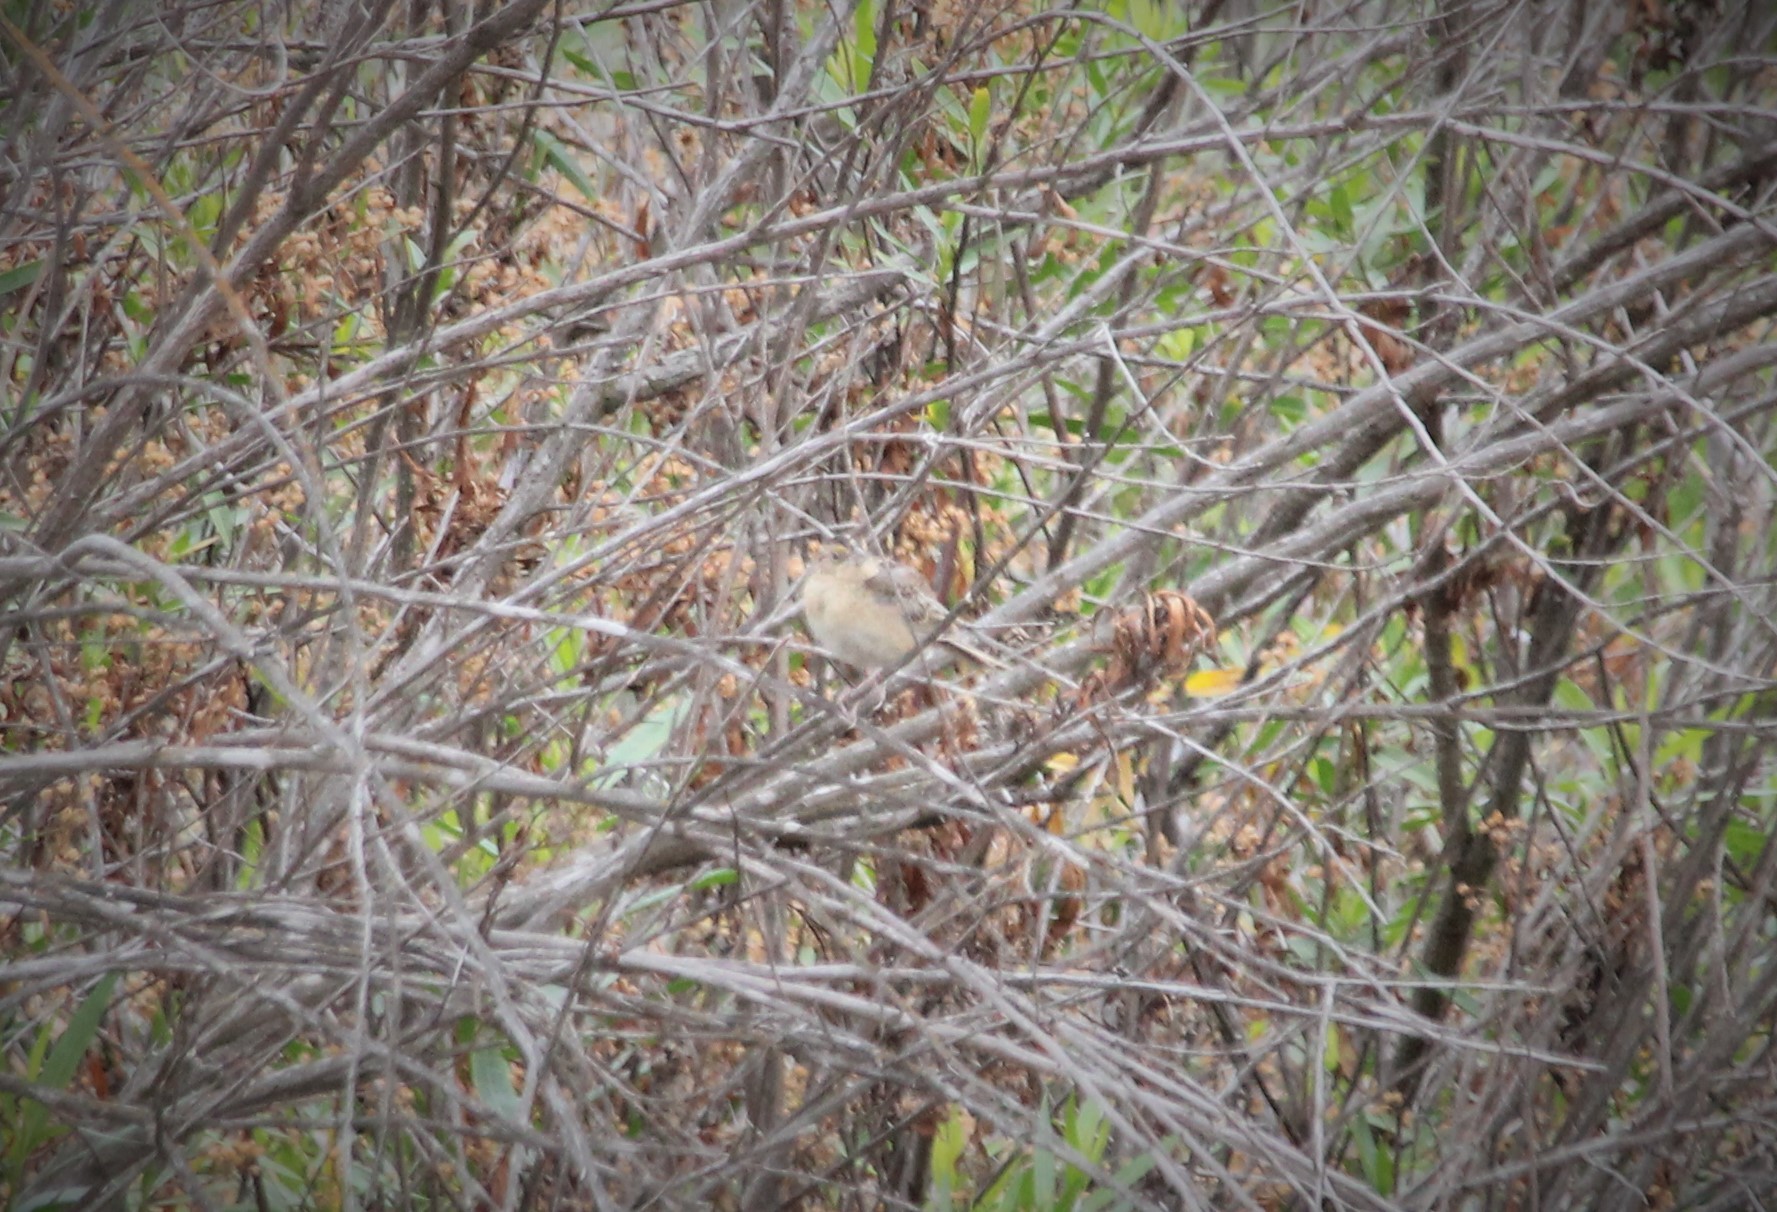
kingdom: Animalia
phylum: Chordata
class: Aves
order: Passeriformes
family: Passerellidae
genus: Ammodramus
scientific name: Ammodramus savannarum
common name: Grasshopper sparrow
